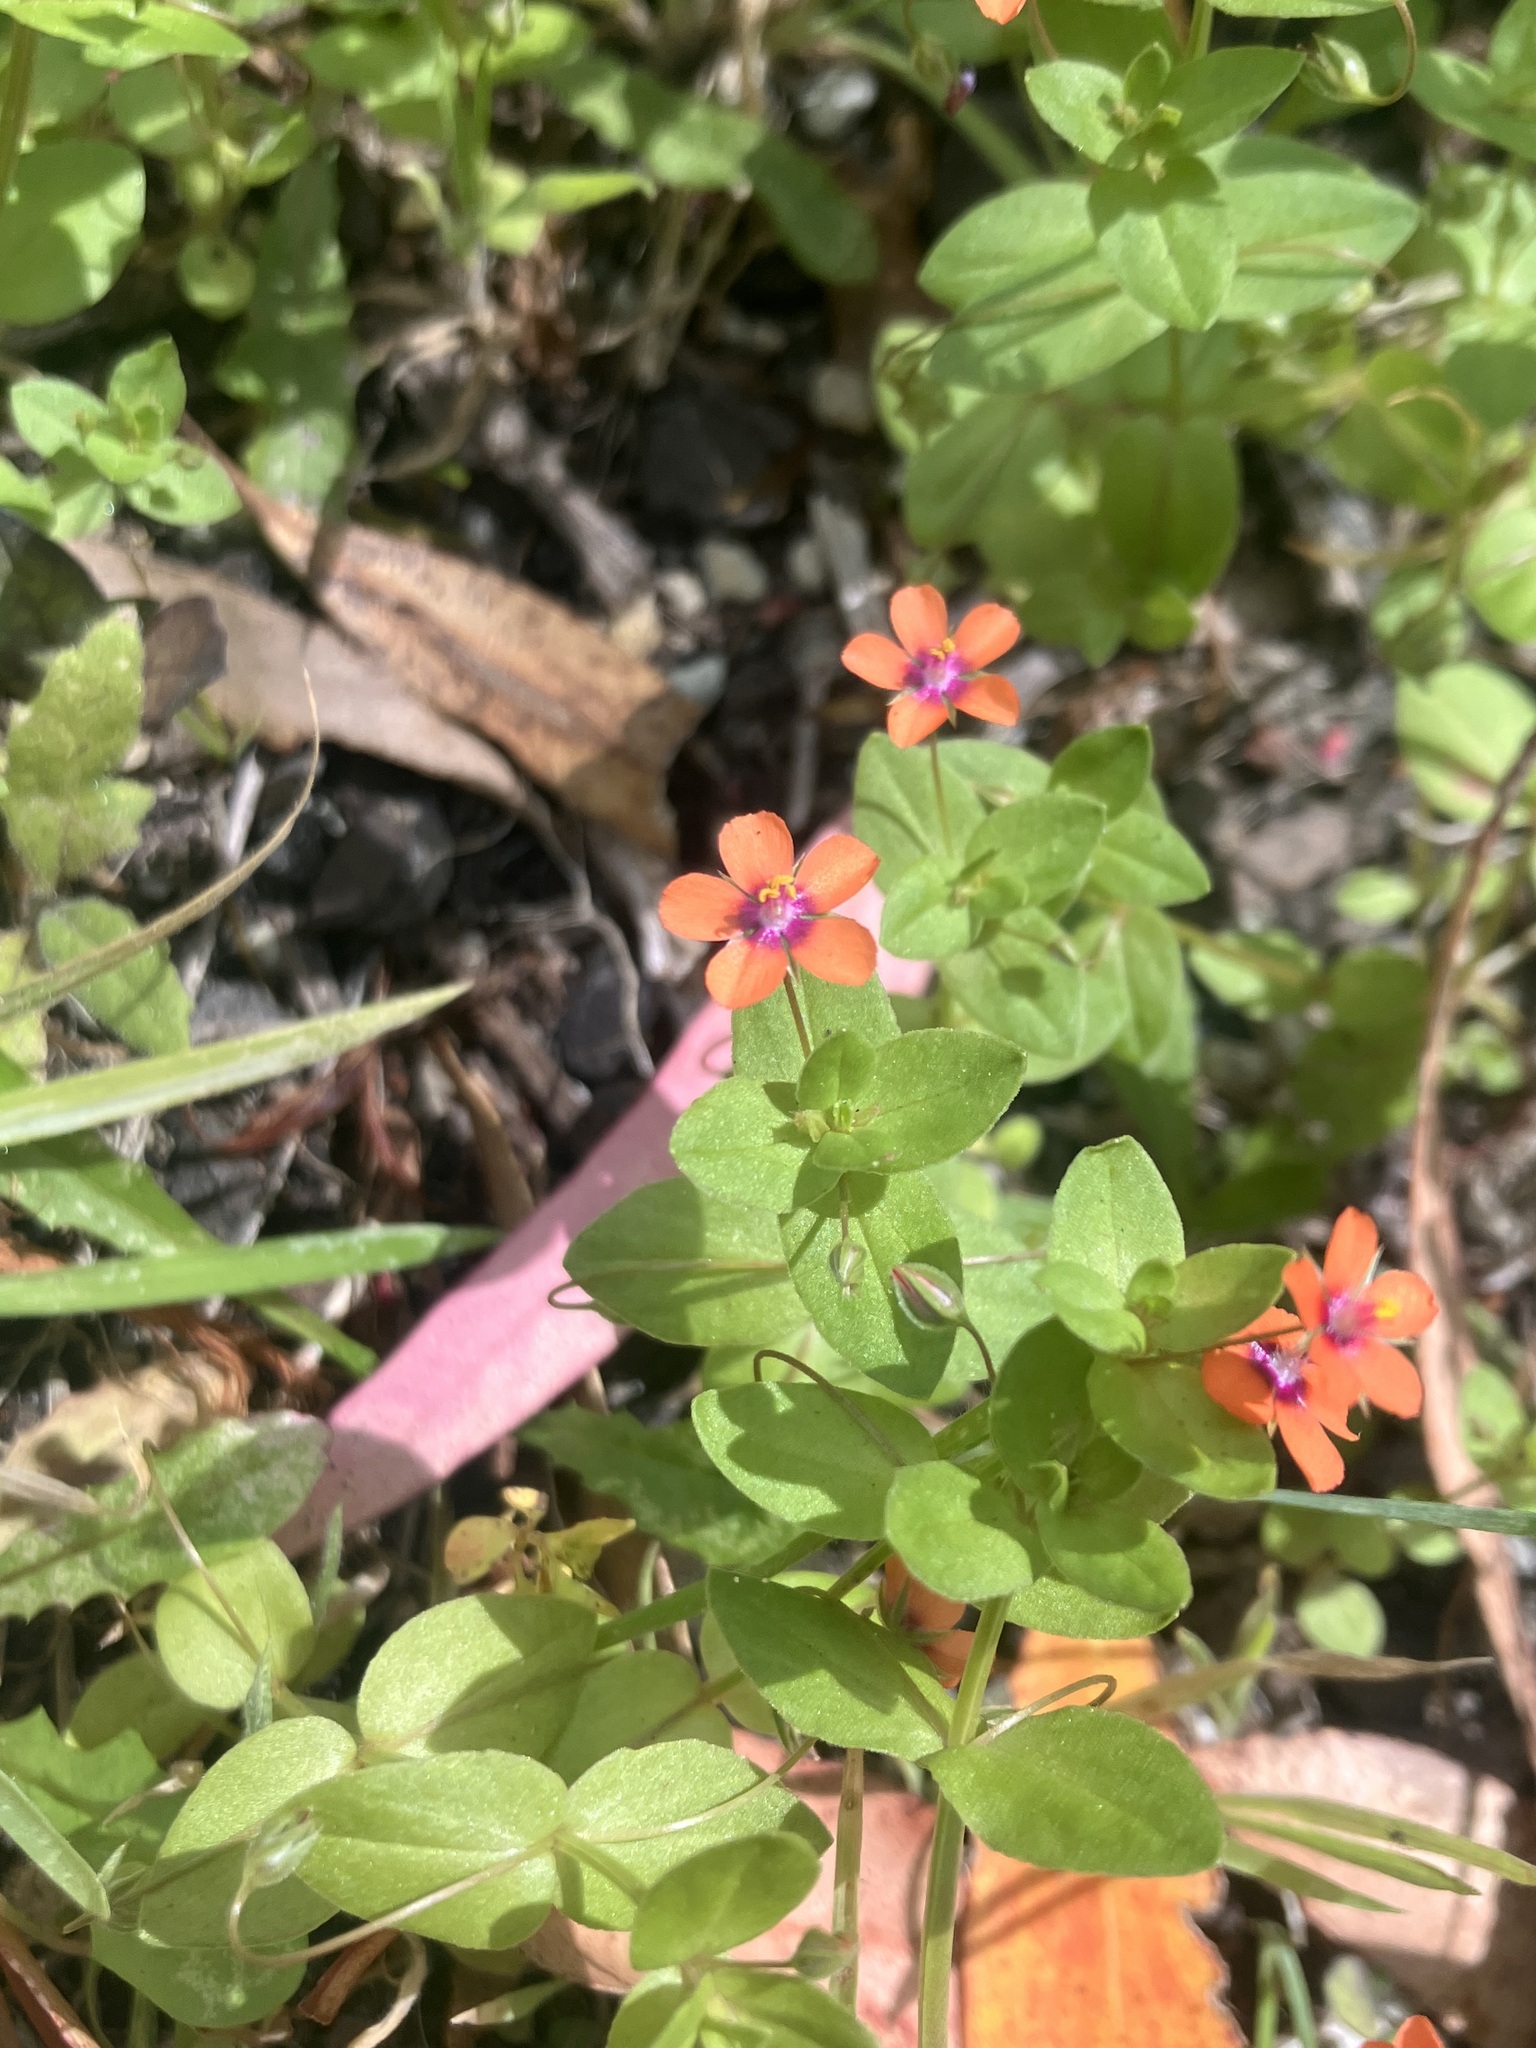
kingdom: Plantae
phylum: Tracheophyta
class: Magnoliopsida
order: Ericales
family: Primulaceae
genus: Lysimachia
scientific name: Lysimachia arvensis
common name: Scarlet pimpernel
